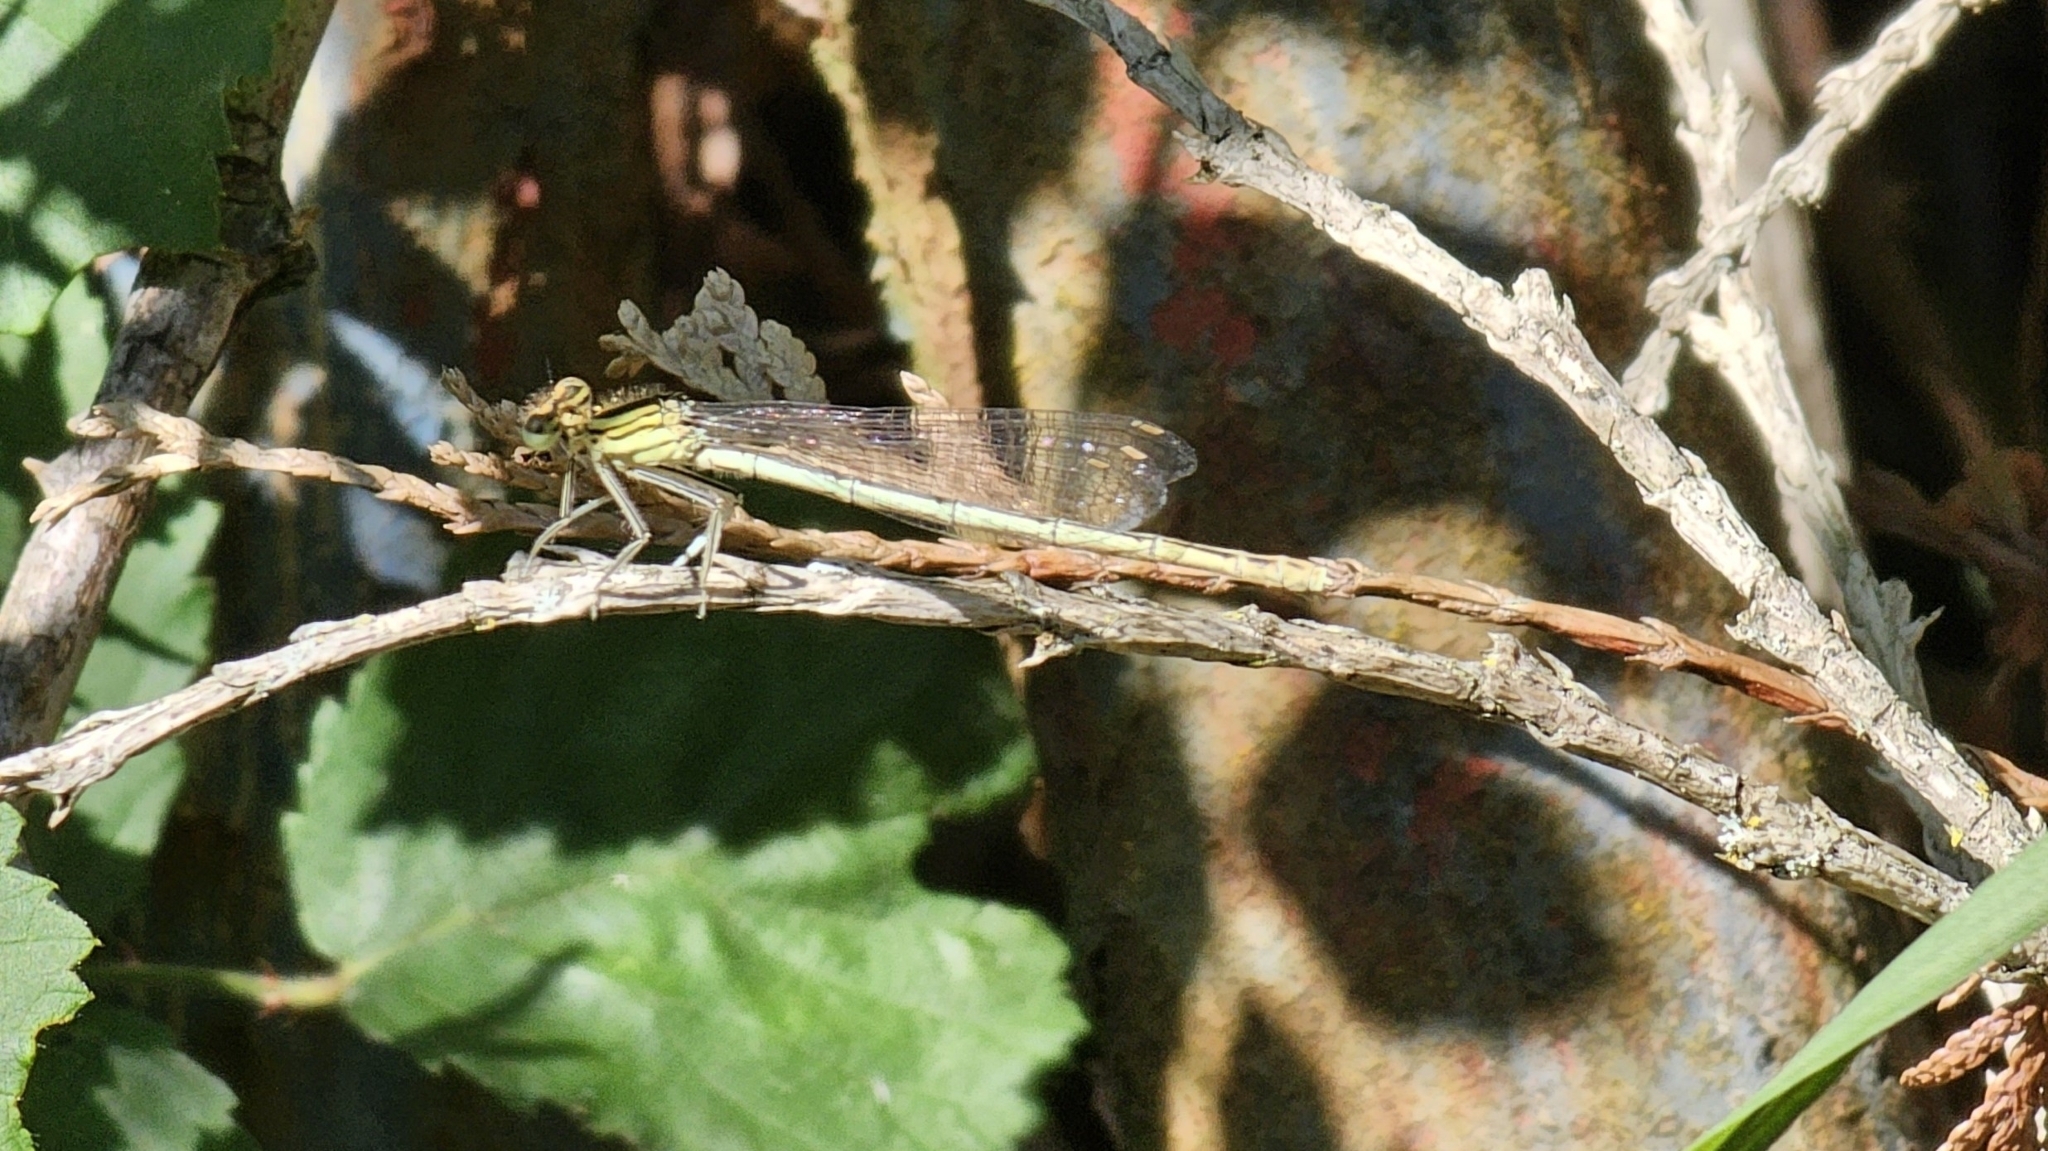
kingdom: Animalia
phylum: Arthropoda
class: Insecta
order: Odonata
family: Platycnemididae
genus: Platycnemis
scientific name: Platycnemis pennipes
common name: White-legged damselfly
